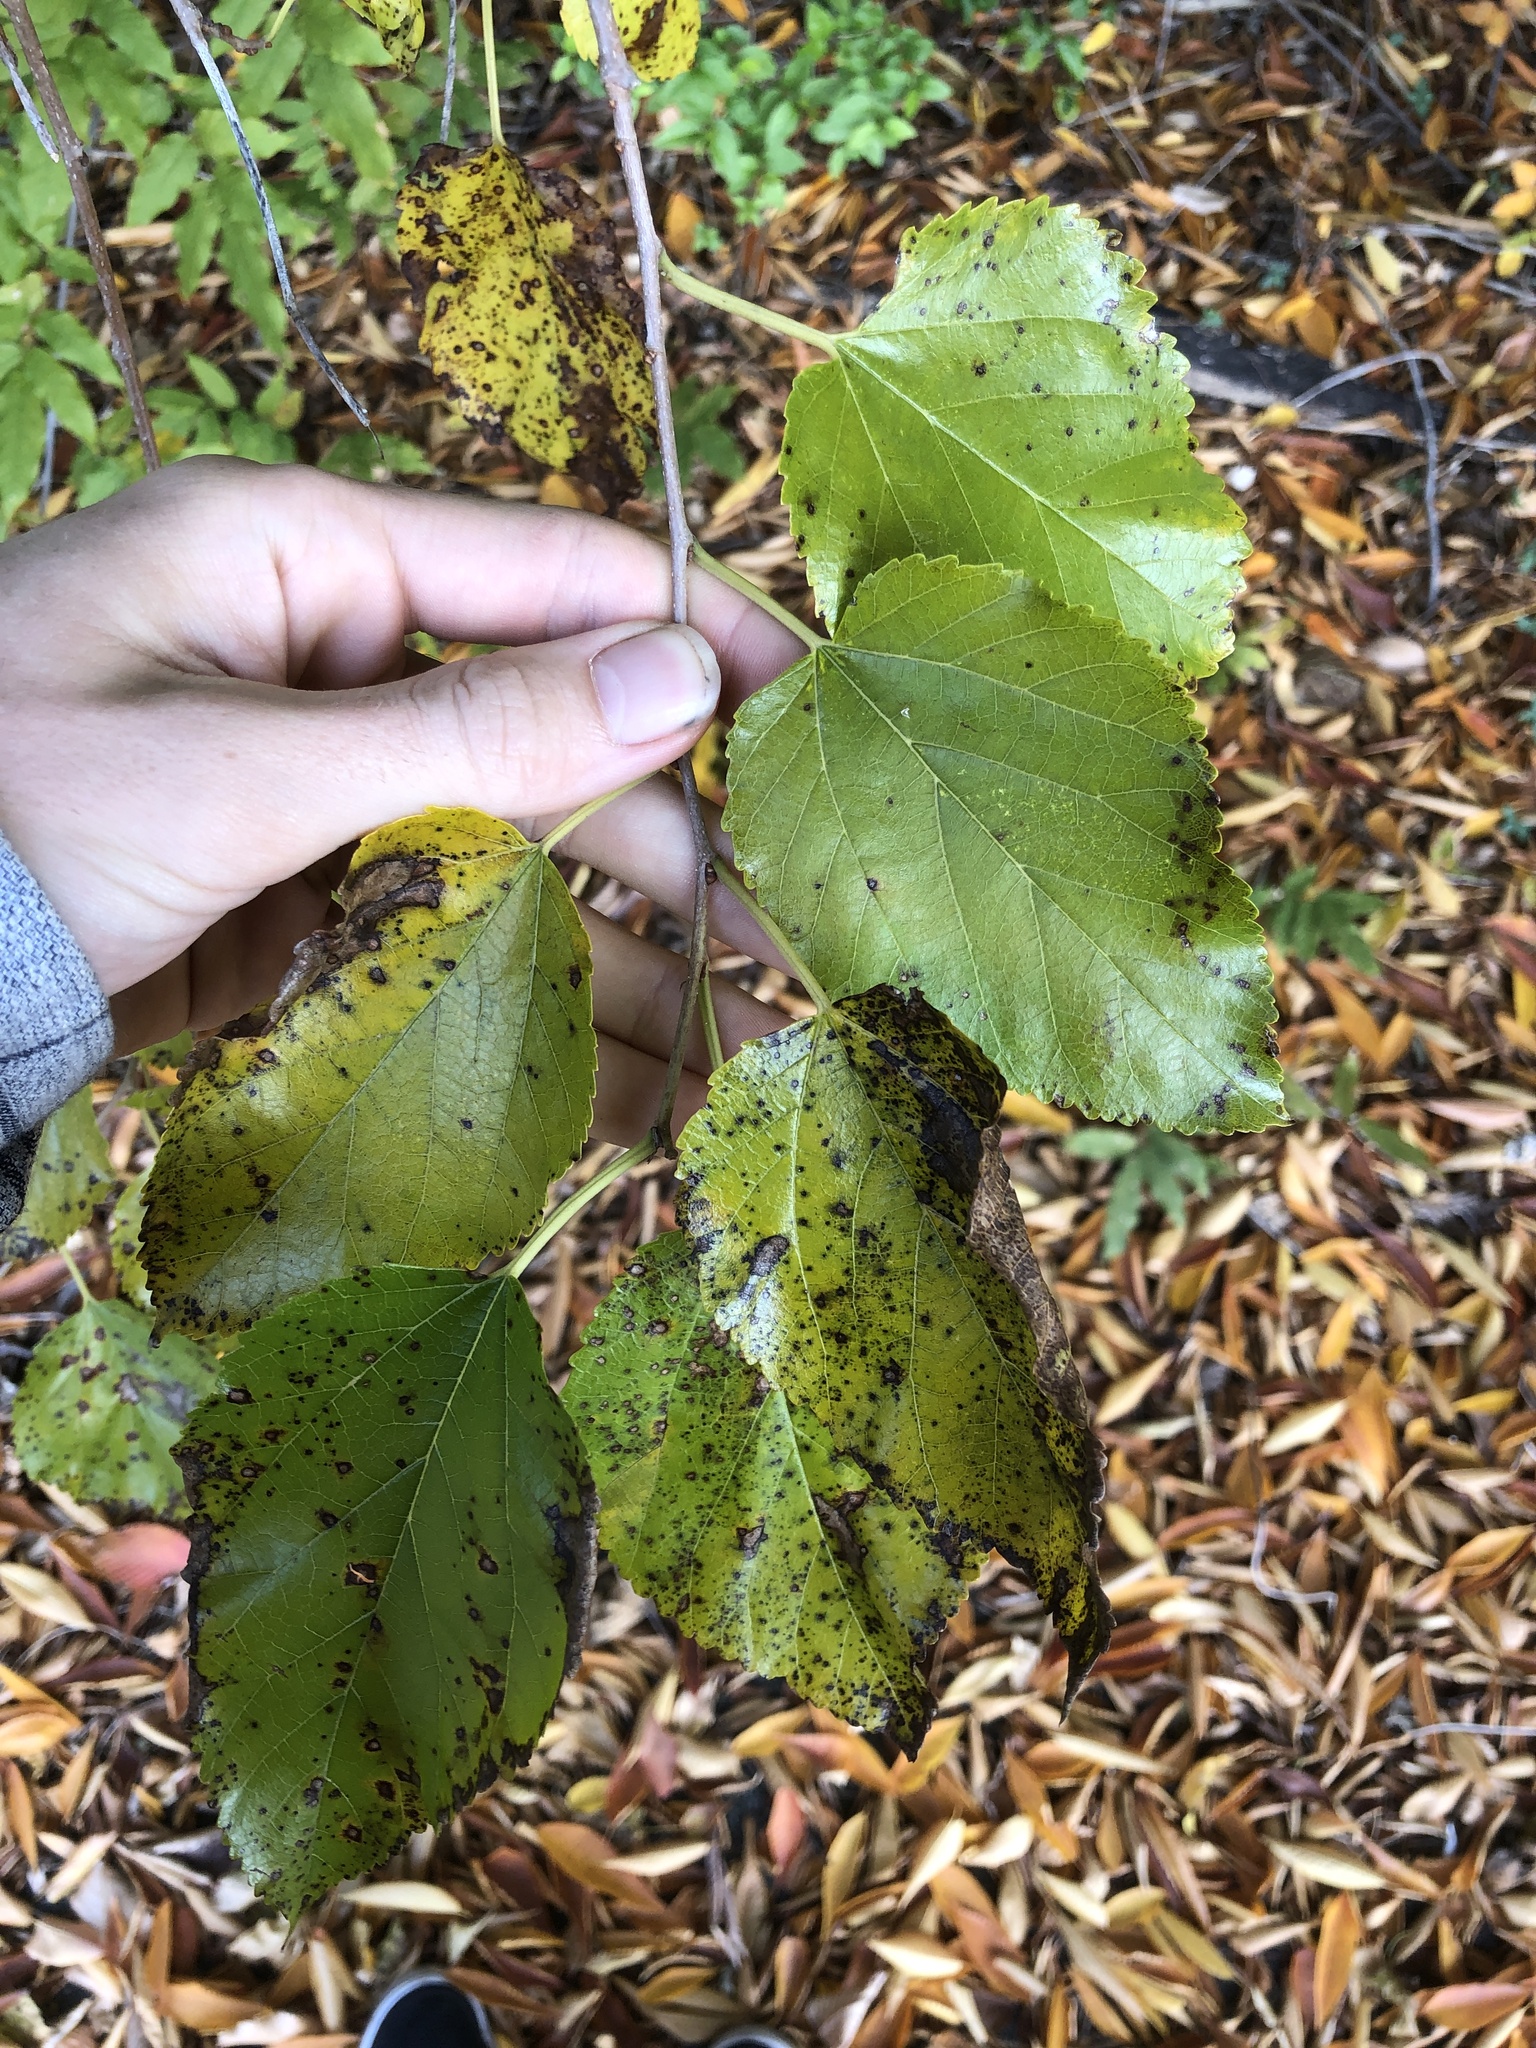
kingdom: Plantae
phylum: Tracheophyta
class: Magnoliopsida
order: Rosales
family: Moraceae
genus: Morus
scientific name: Morus alba
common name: White mulberry
